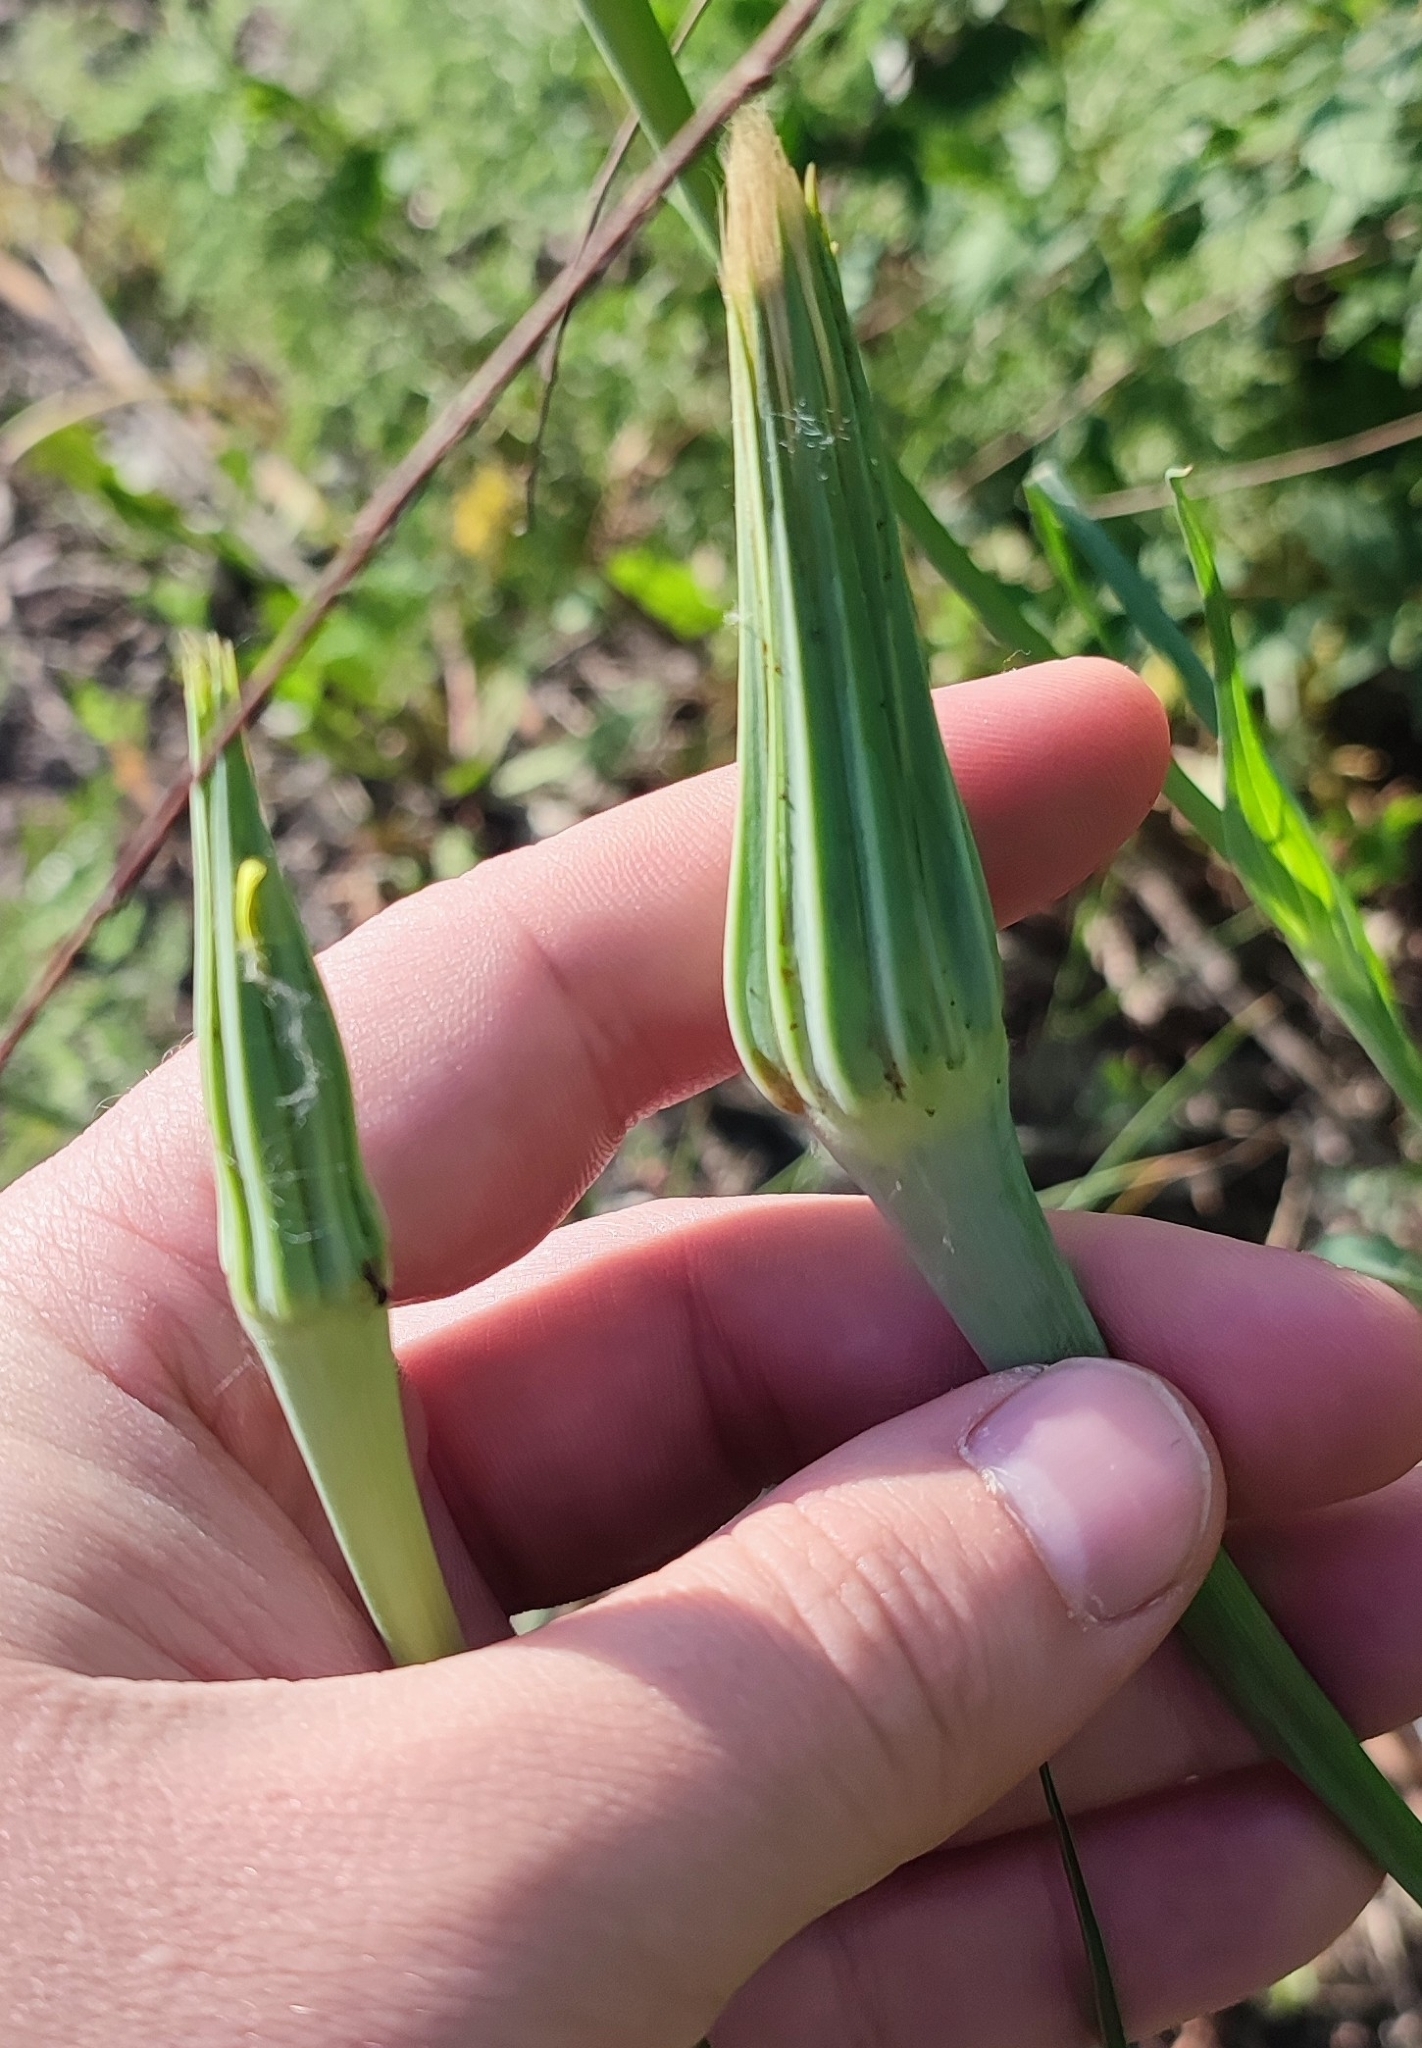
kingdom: Plantae
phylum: Tracheophyta
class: Magnoliopsida
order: Asterales
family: Asteraceae
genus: Tragopogon
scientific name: Tragopogon dubius
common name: Yellow salsify
